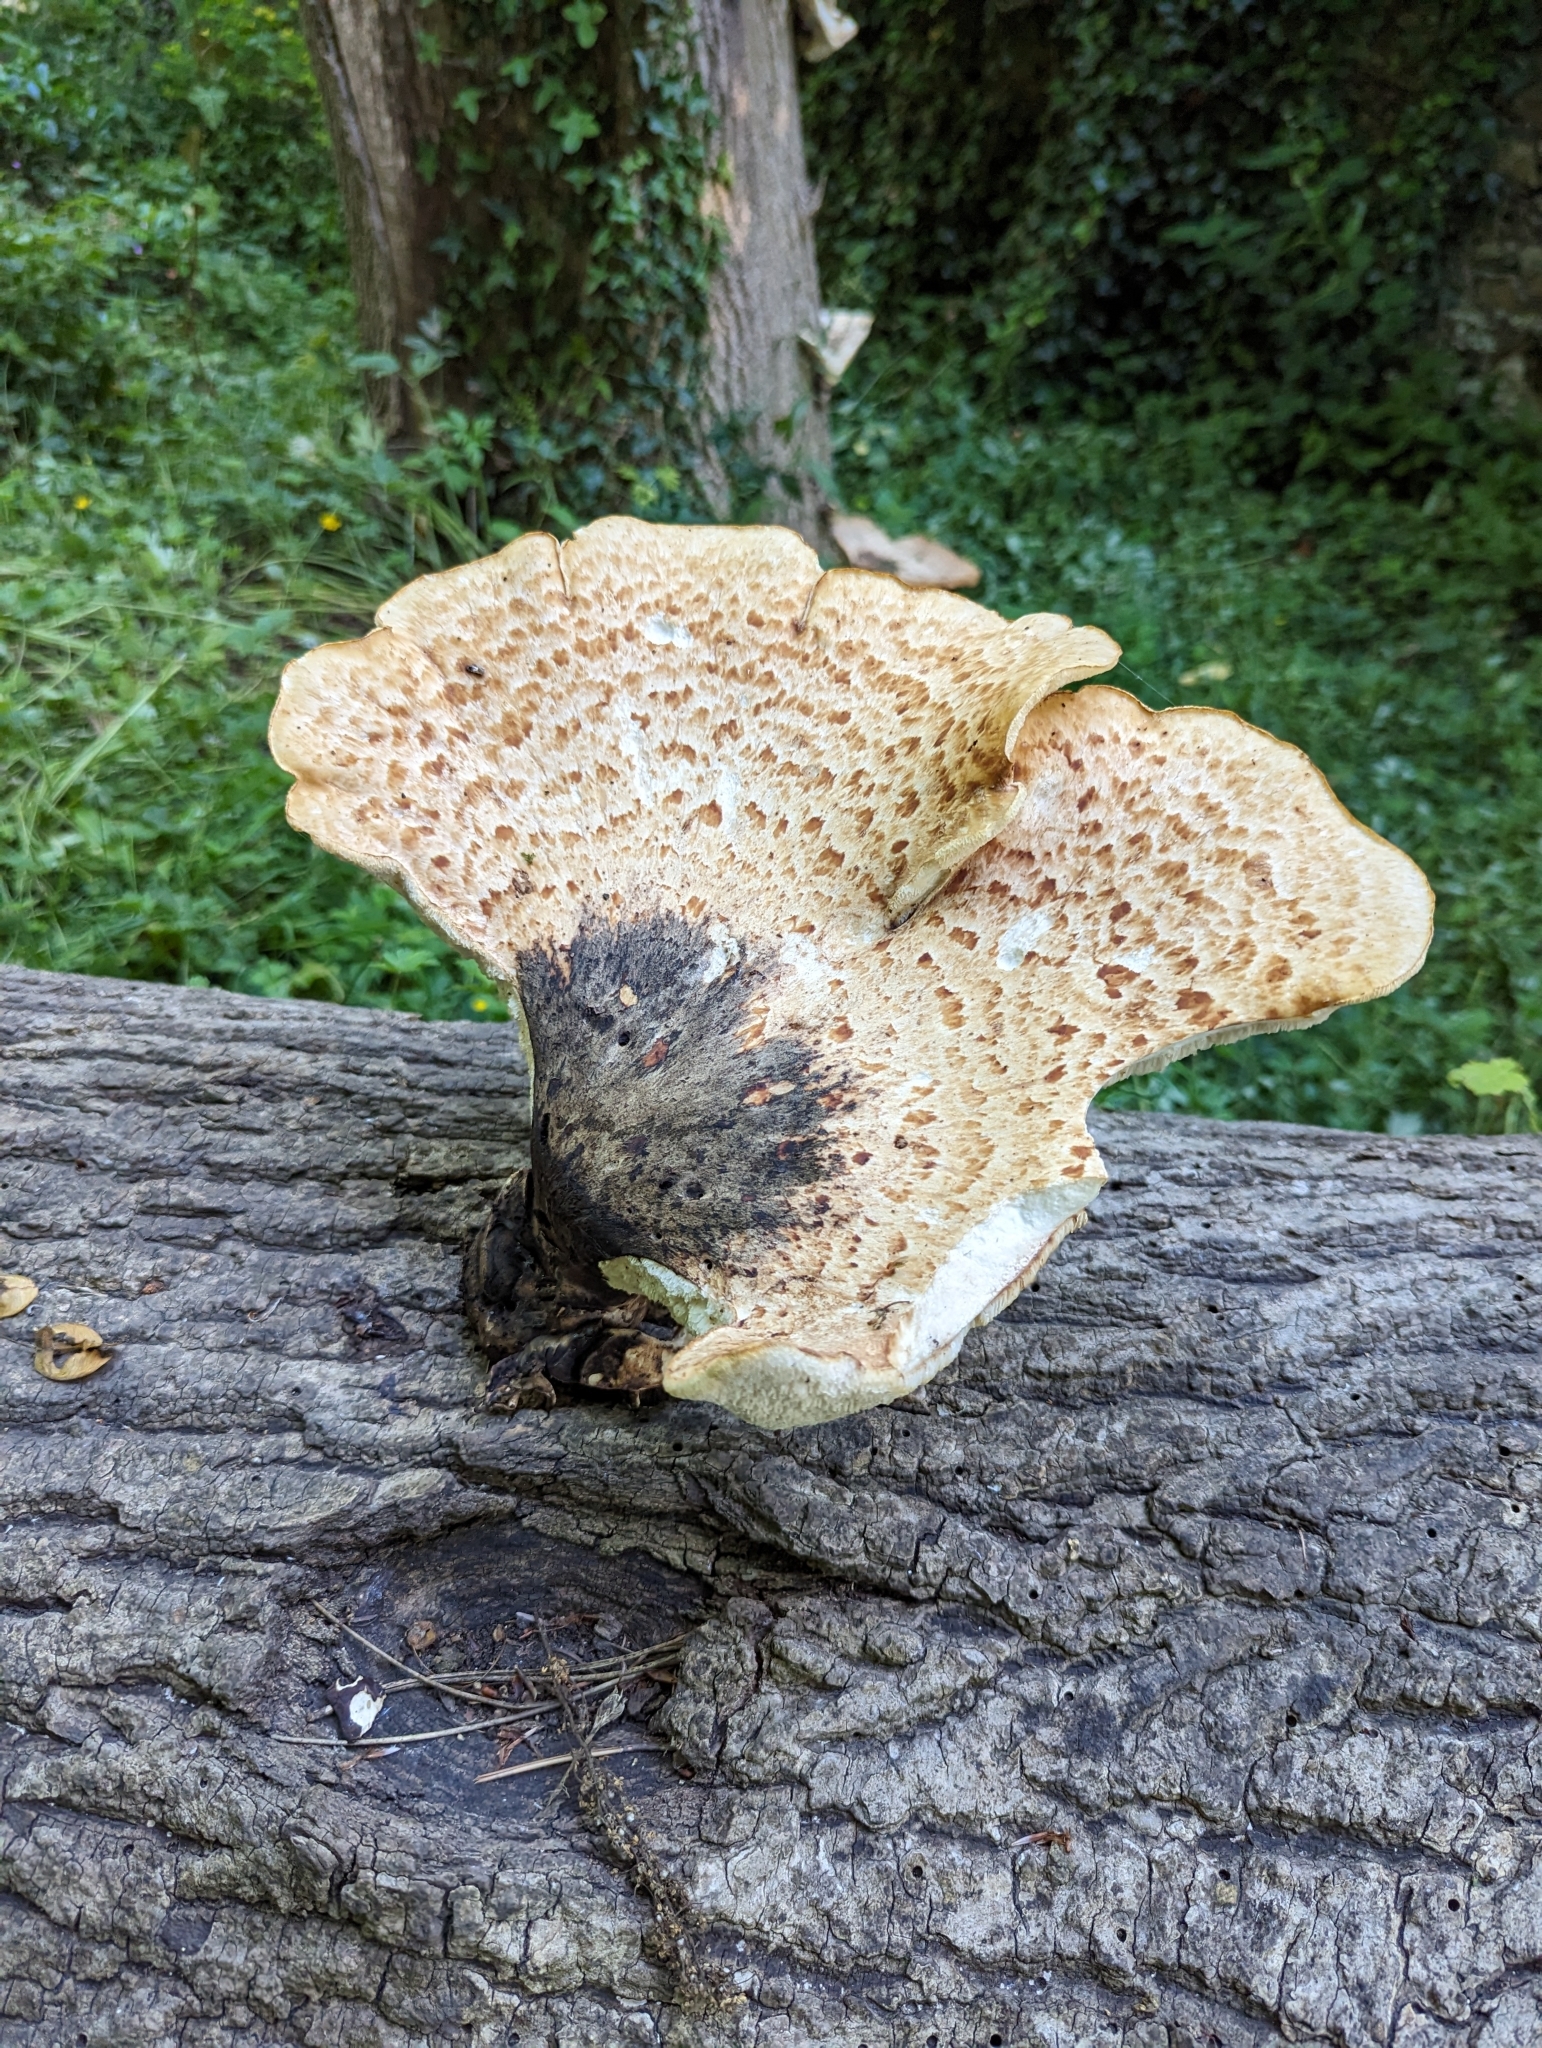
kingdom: Fungi
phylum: Basidiomycota
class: Agaricomycetes
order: Polyporales
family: Polyporaceae
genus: Cerioporus
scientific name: Cerioporus squamosus
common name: Dryad's saddle
